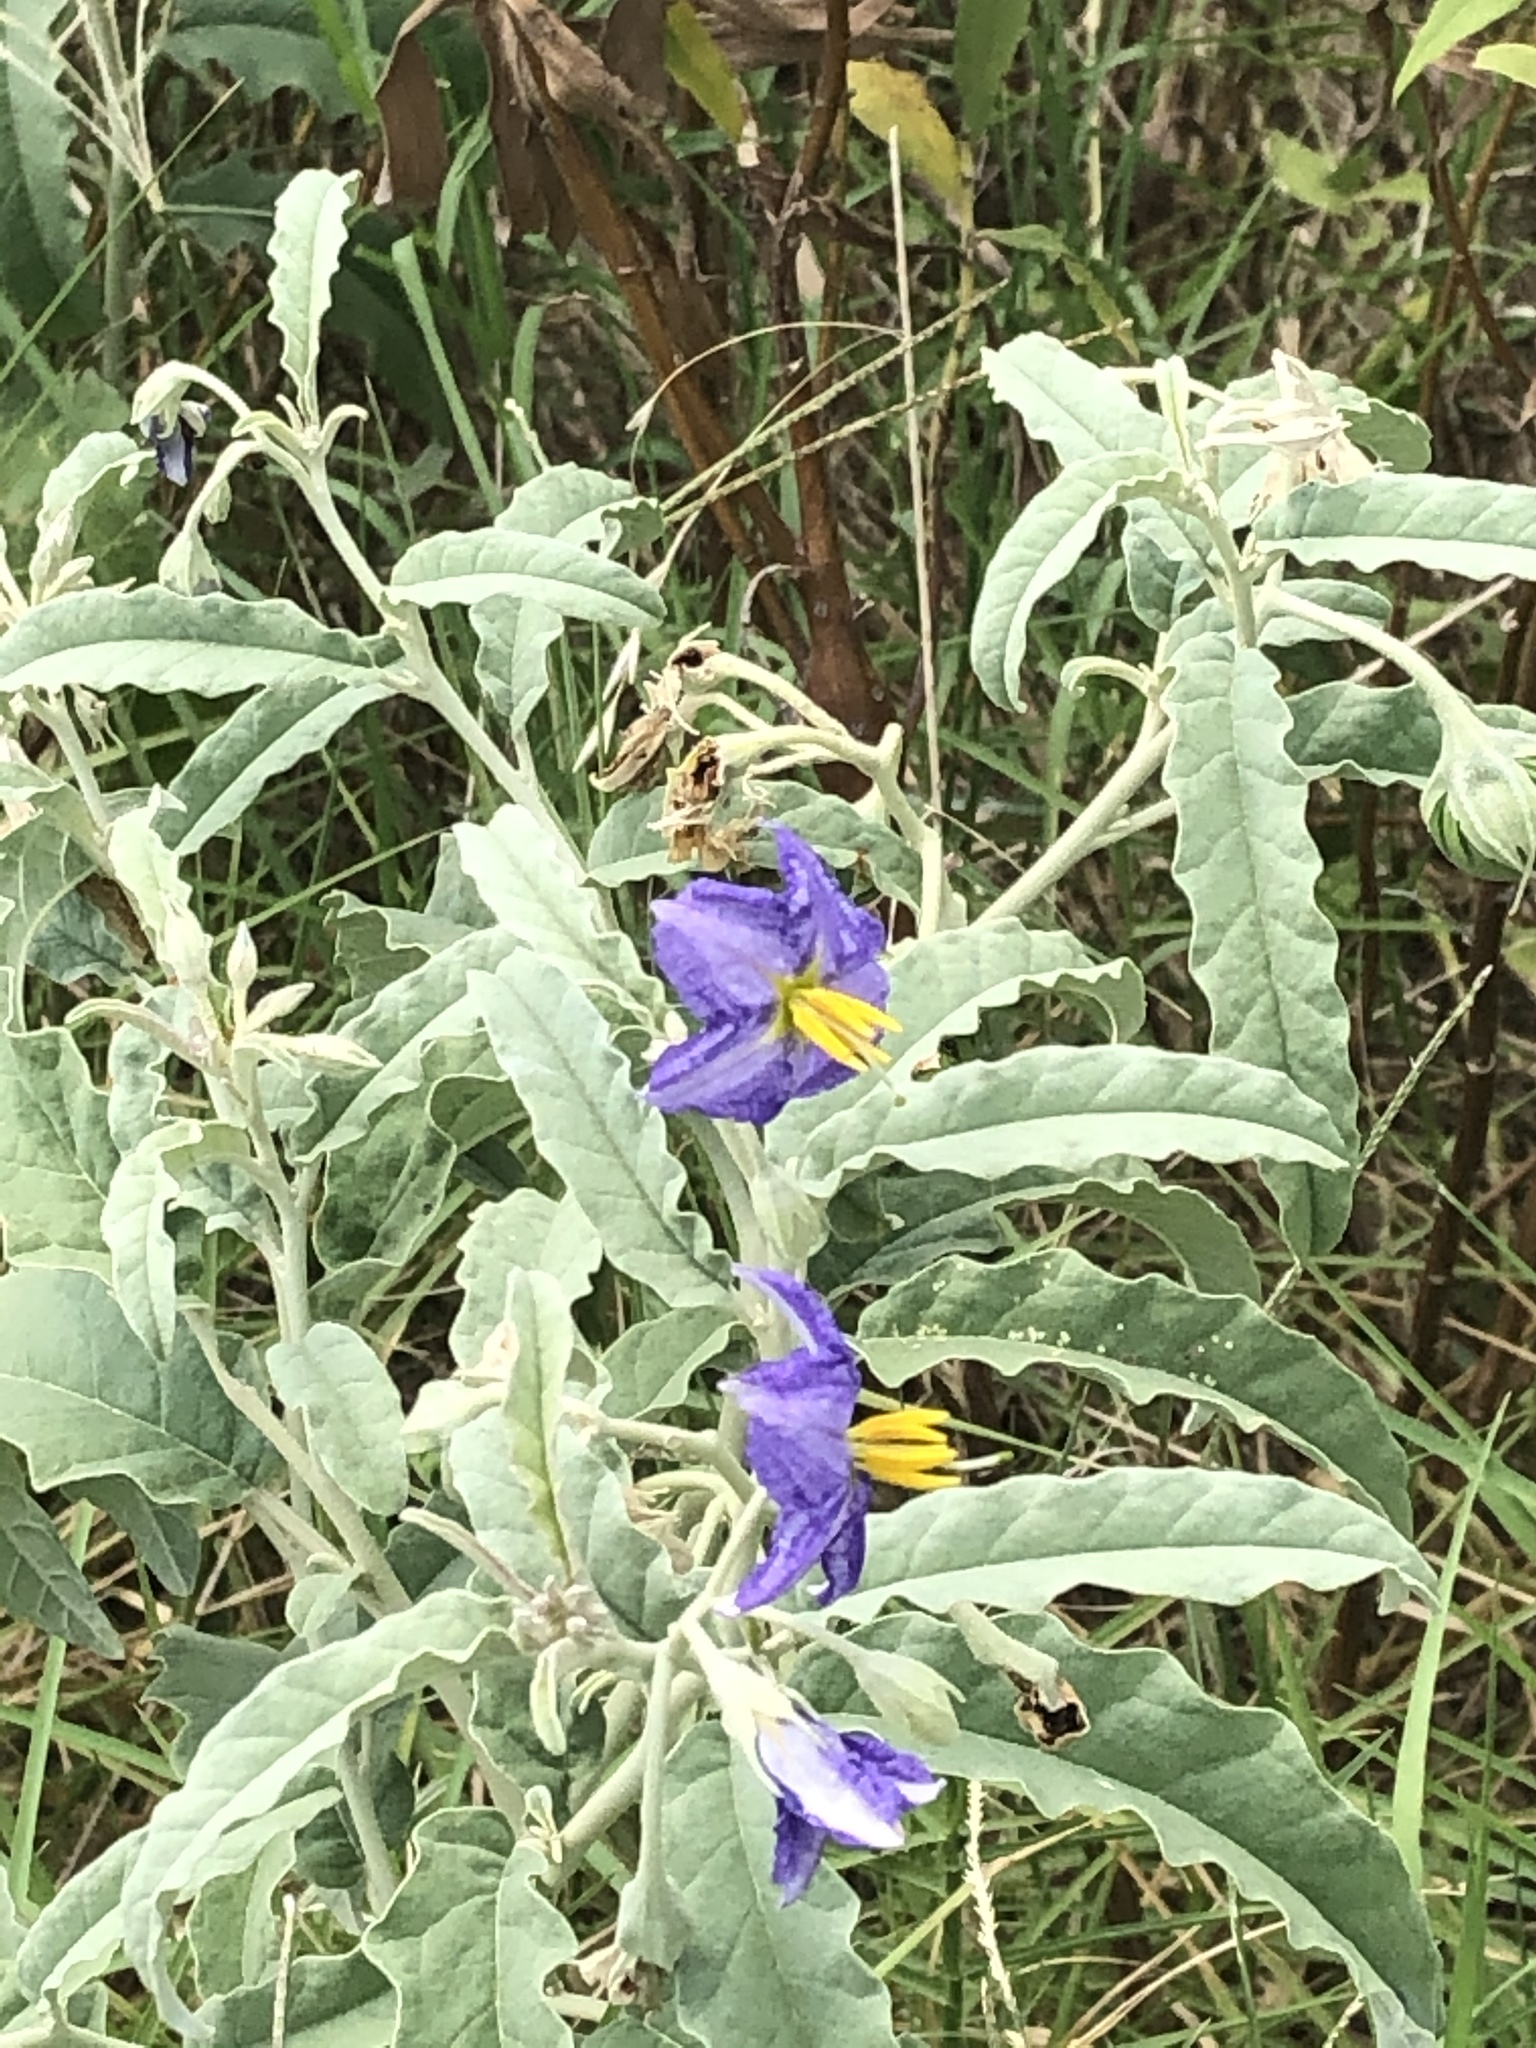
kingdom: Plantae
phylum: Tracheophyta
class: Magnoliopsida
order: Solanales
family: Solanaceae
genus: Solanum
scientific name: Solanum elaeagnifolium
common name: Silverleaf nightshade
